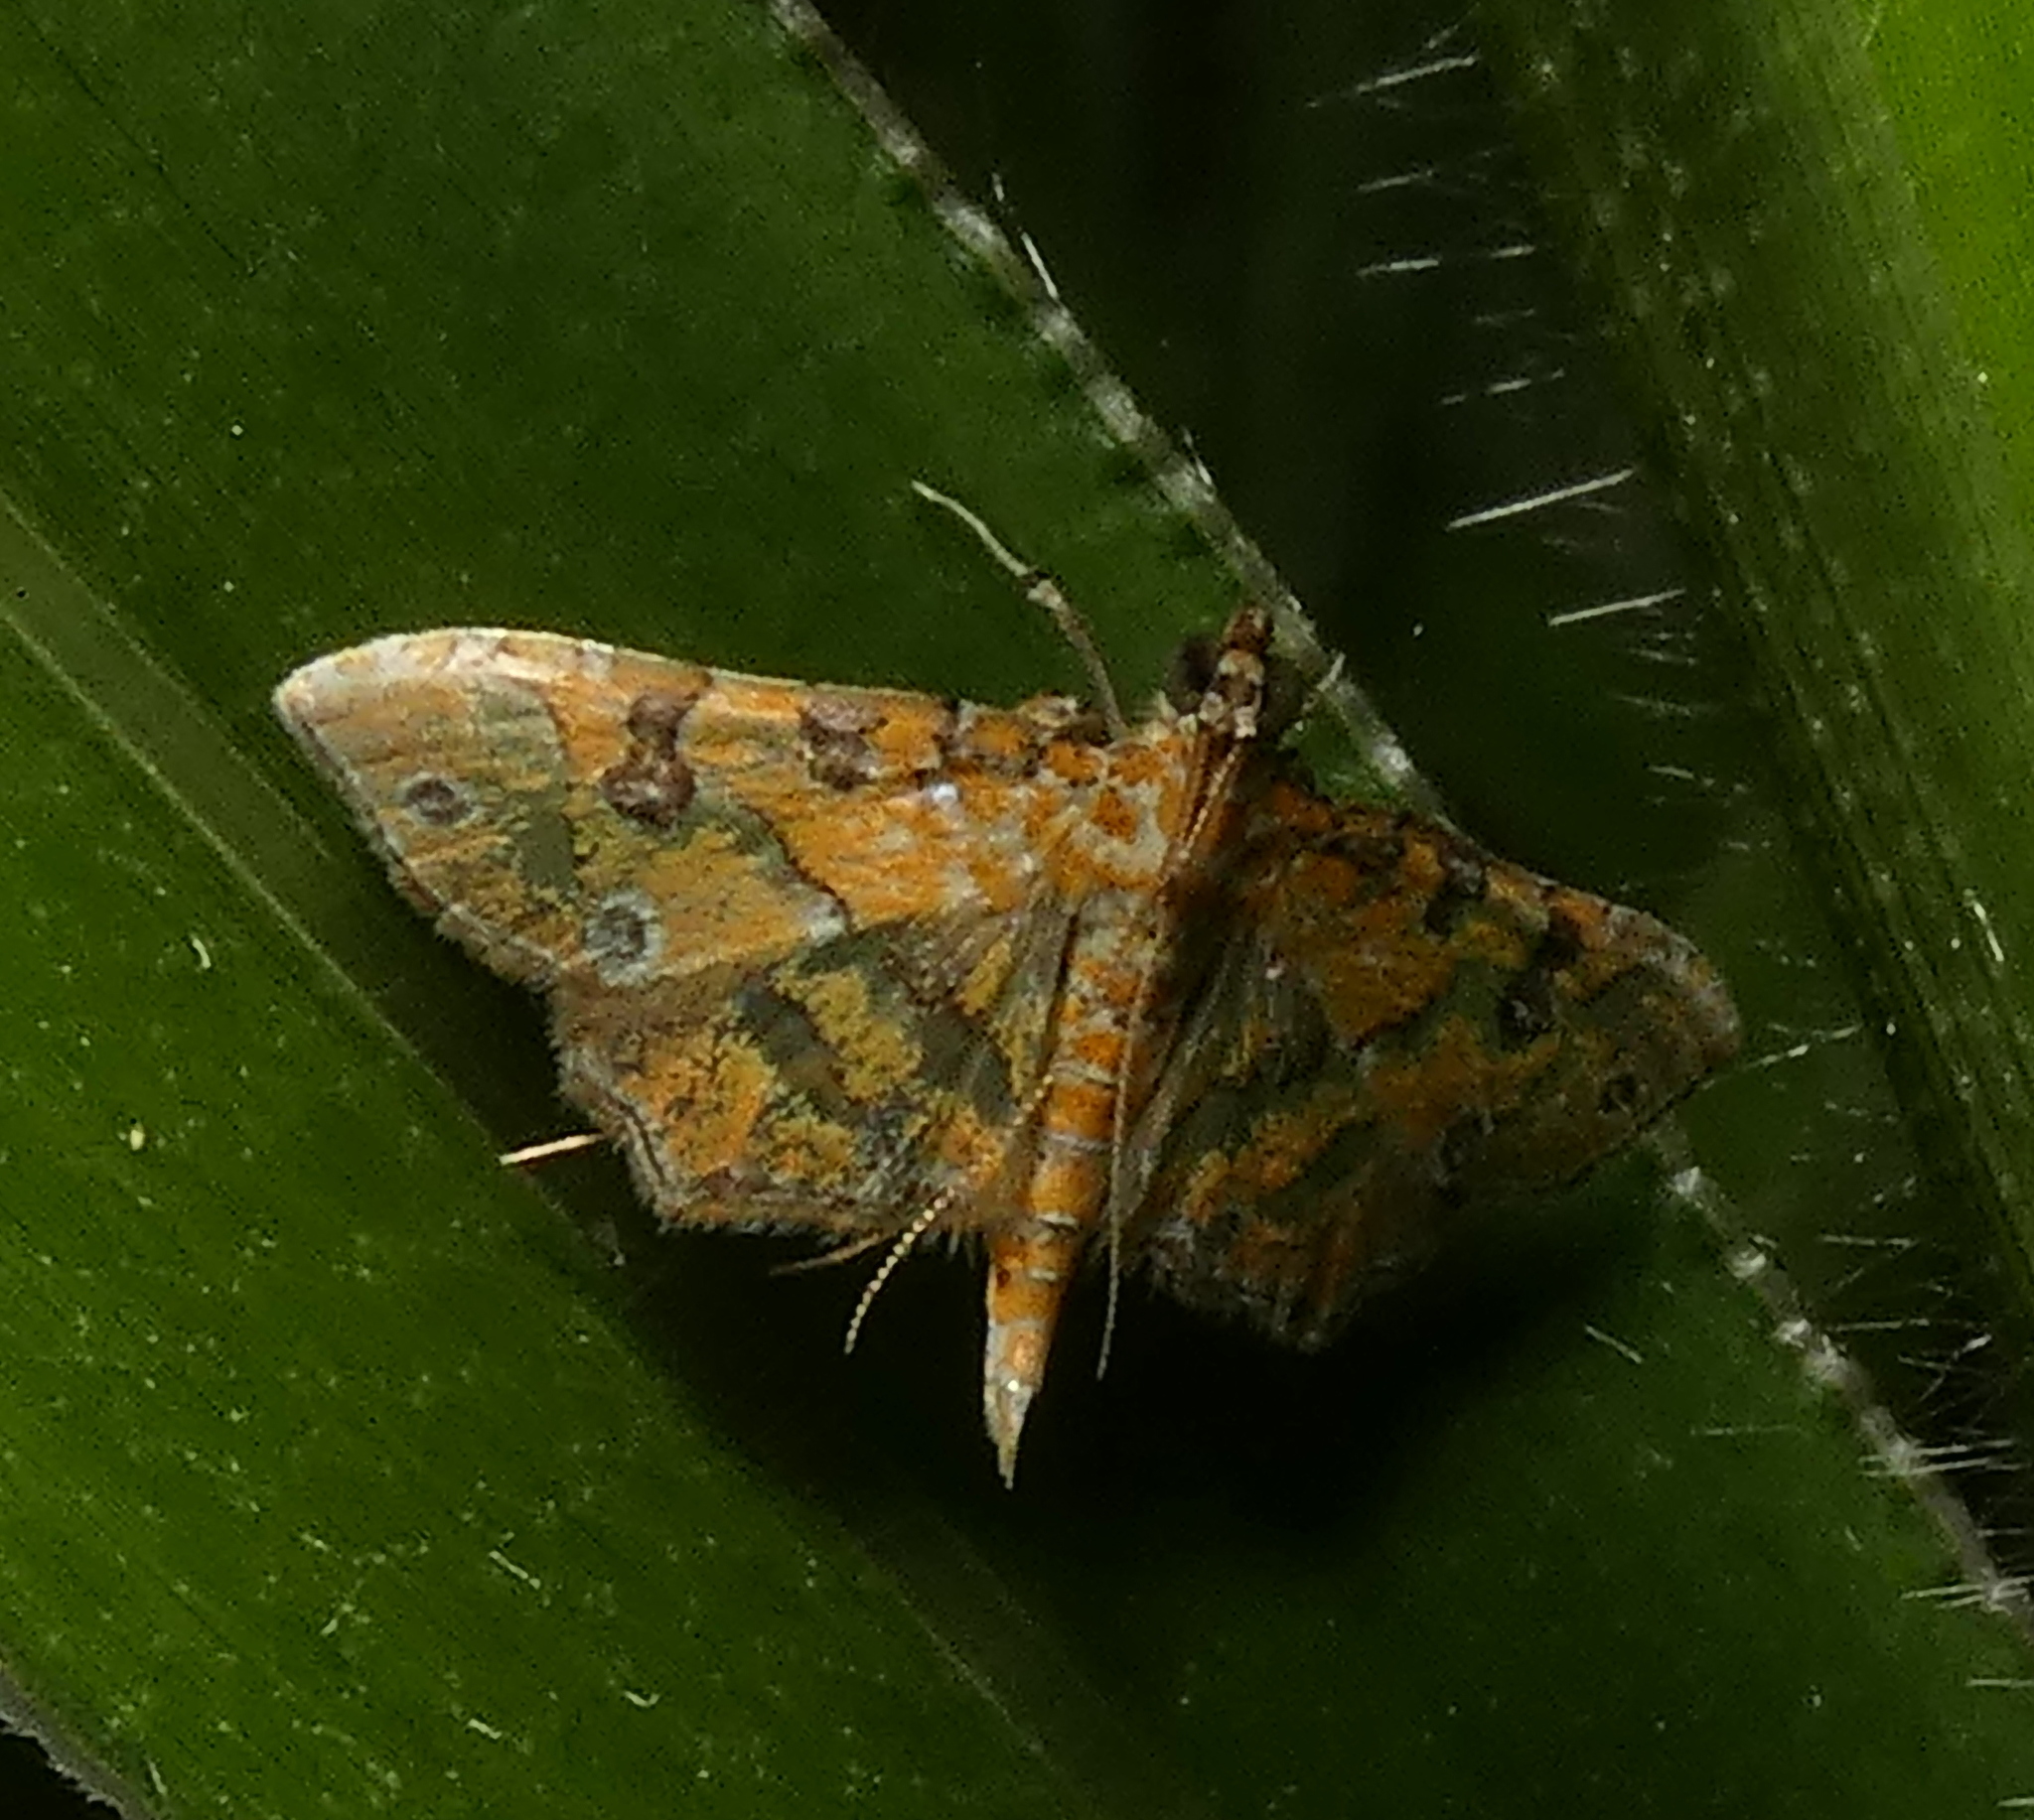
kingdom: Animalia
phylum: Arthropoda
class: Insecta
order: Lepidoptera
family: Crambidae
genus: Ommatospila
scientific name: Ommatospila narcaeusalis
